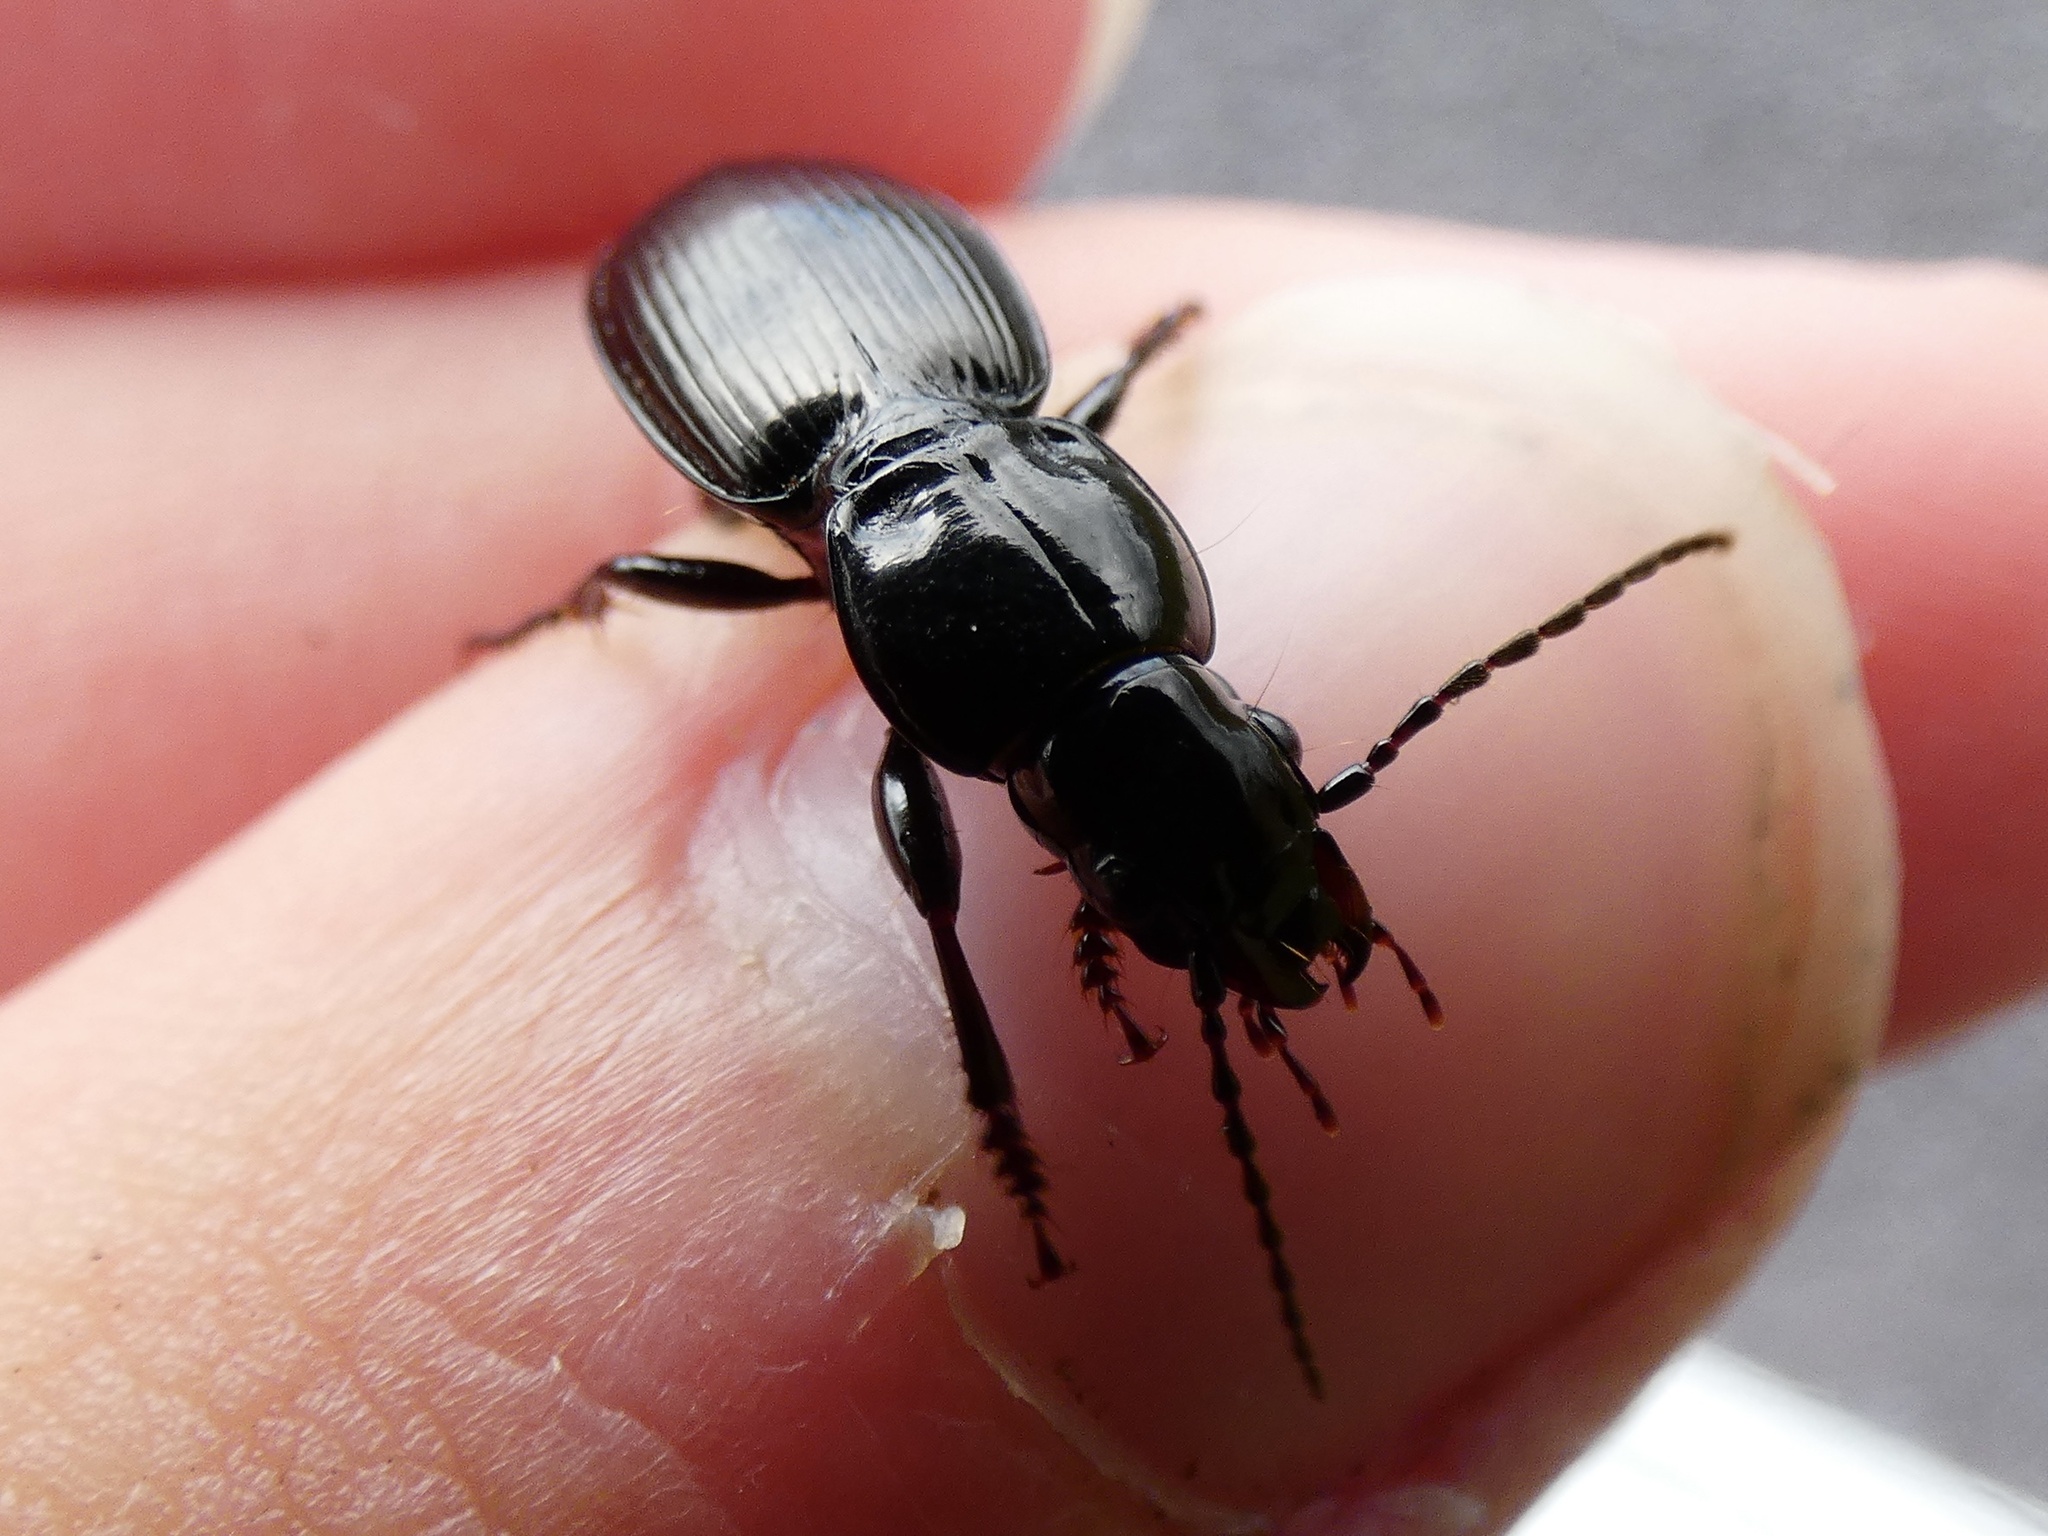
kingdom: Animalia
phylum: Arthropoda
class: Insecta
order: Coleoptera
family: Carabidae
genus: Pterostichus
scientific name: Pterostichus madidus
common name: Black clock
